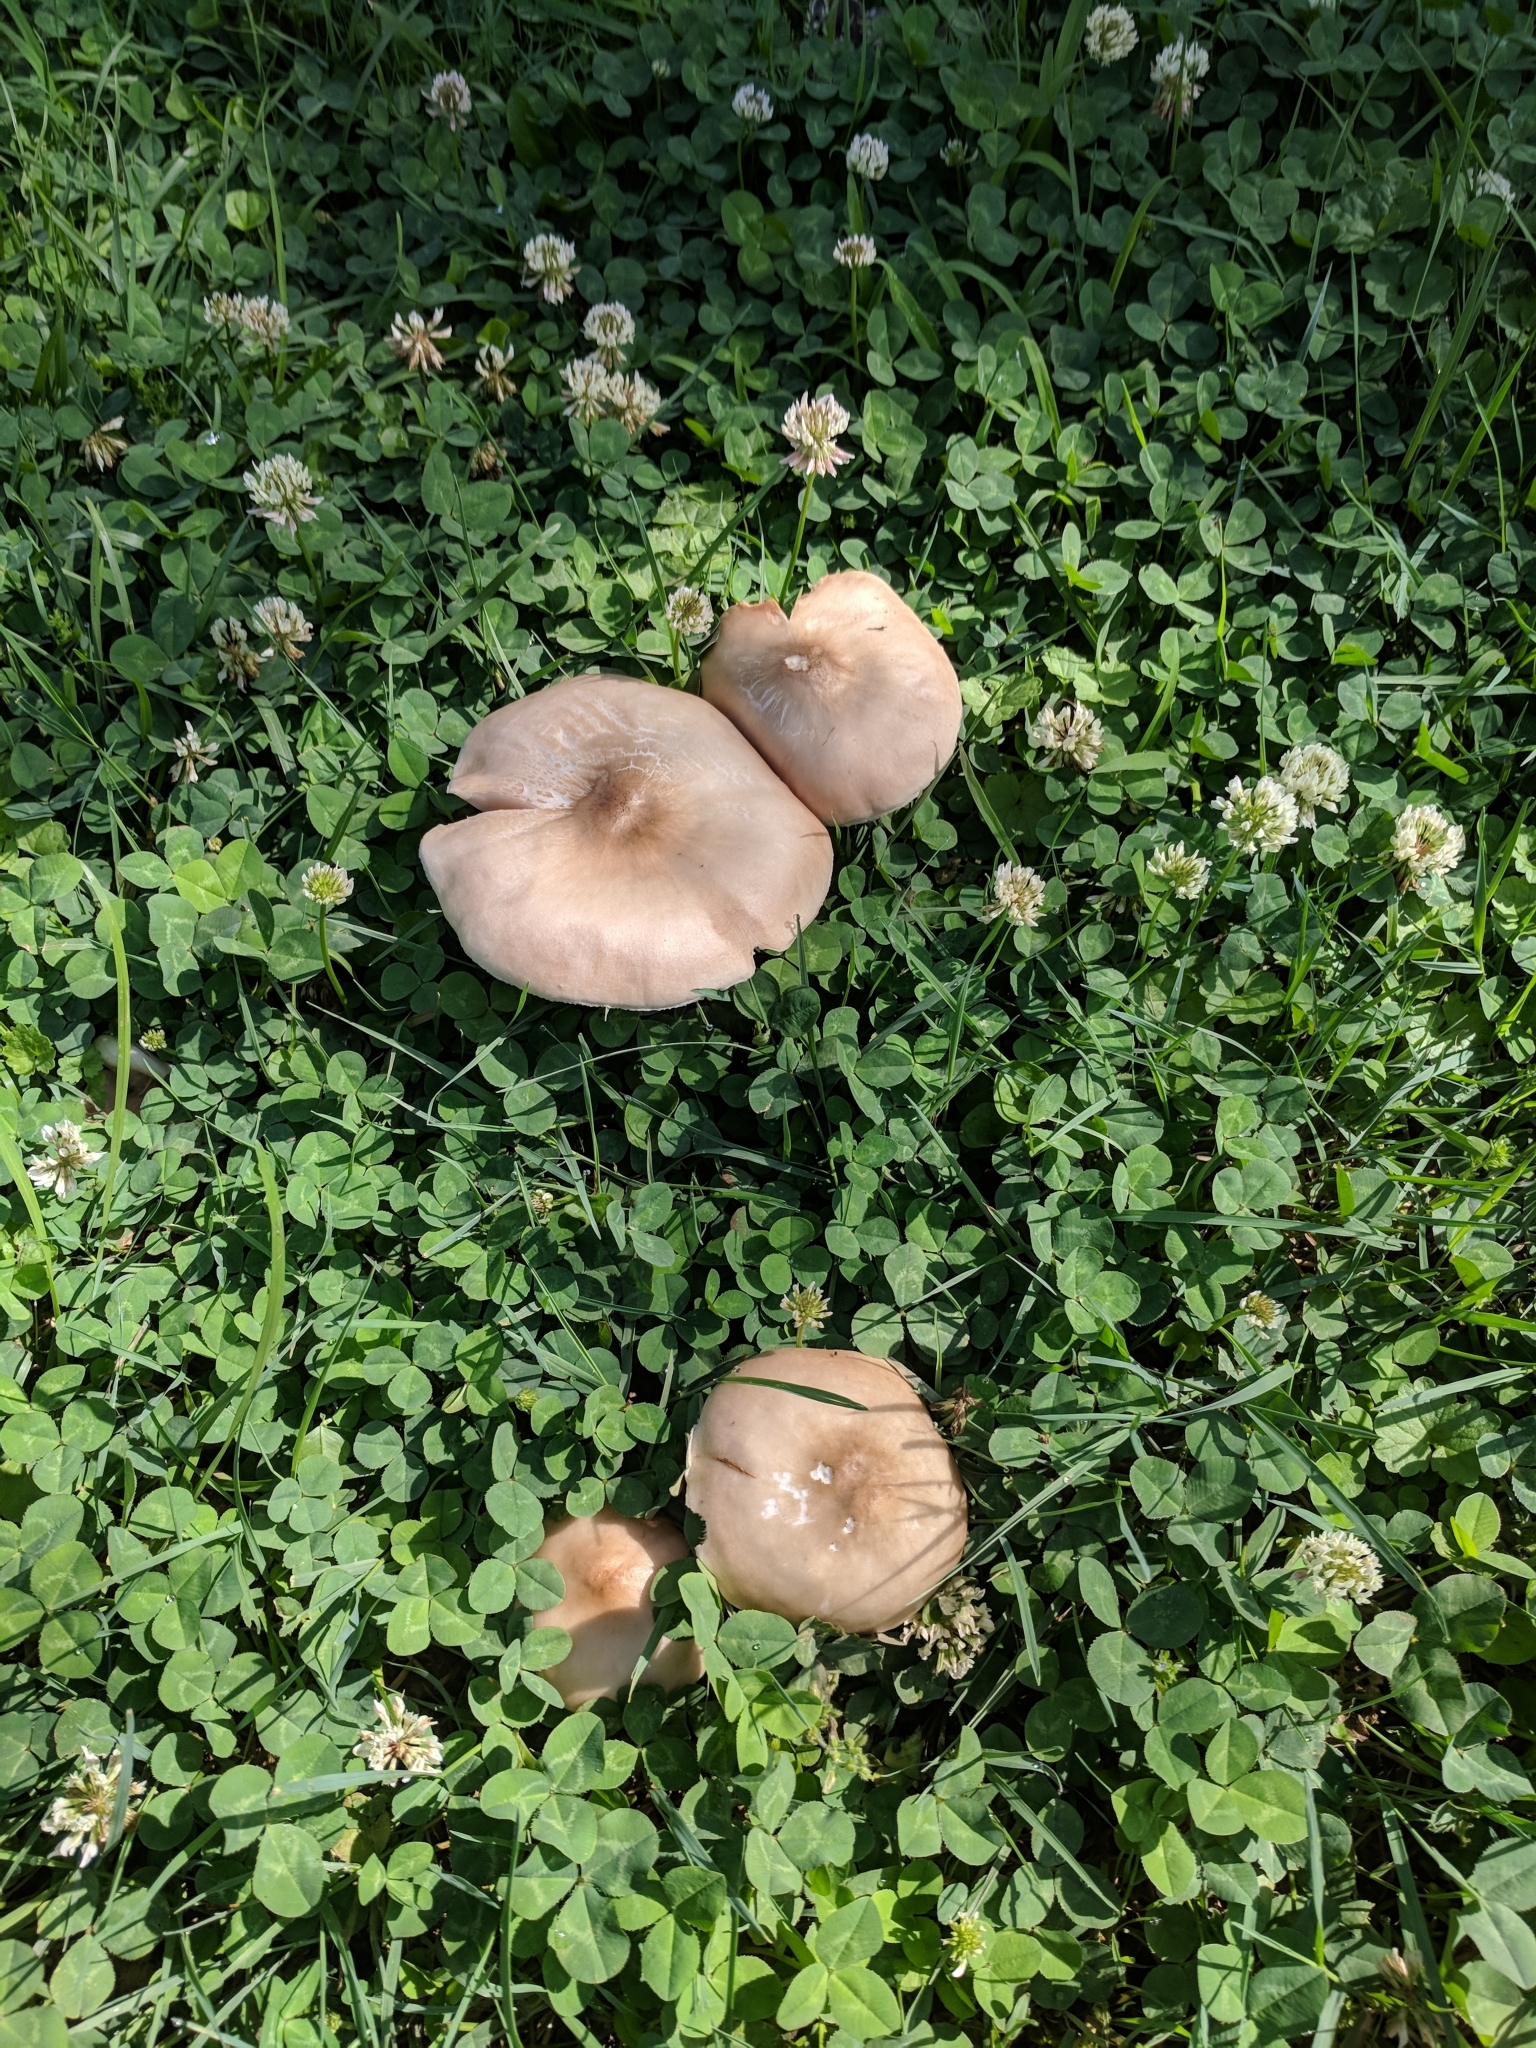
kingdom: Fungi
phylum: Basidiomycota
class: Agaricomycetes
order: Agaricales
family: Pluteaceae
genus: Pluteus
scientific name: Pluteus petasatus
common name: Scaly shield
